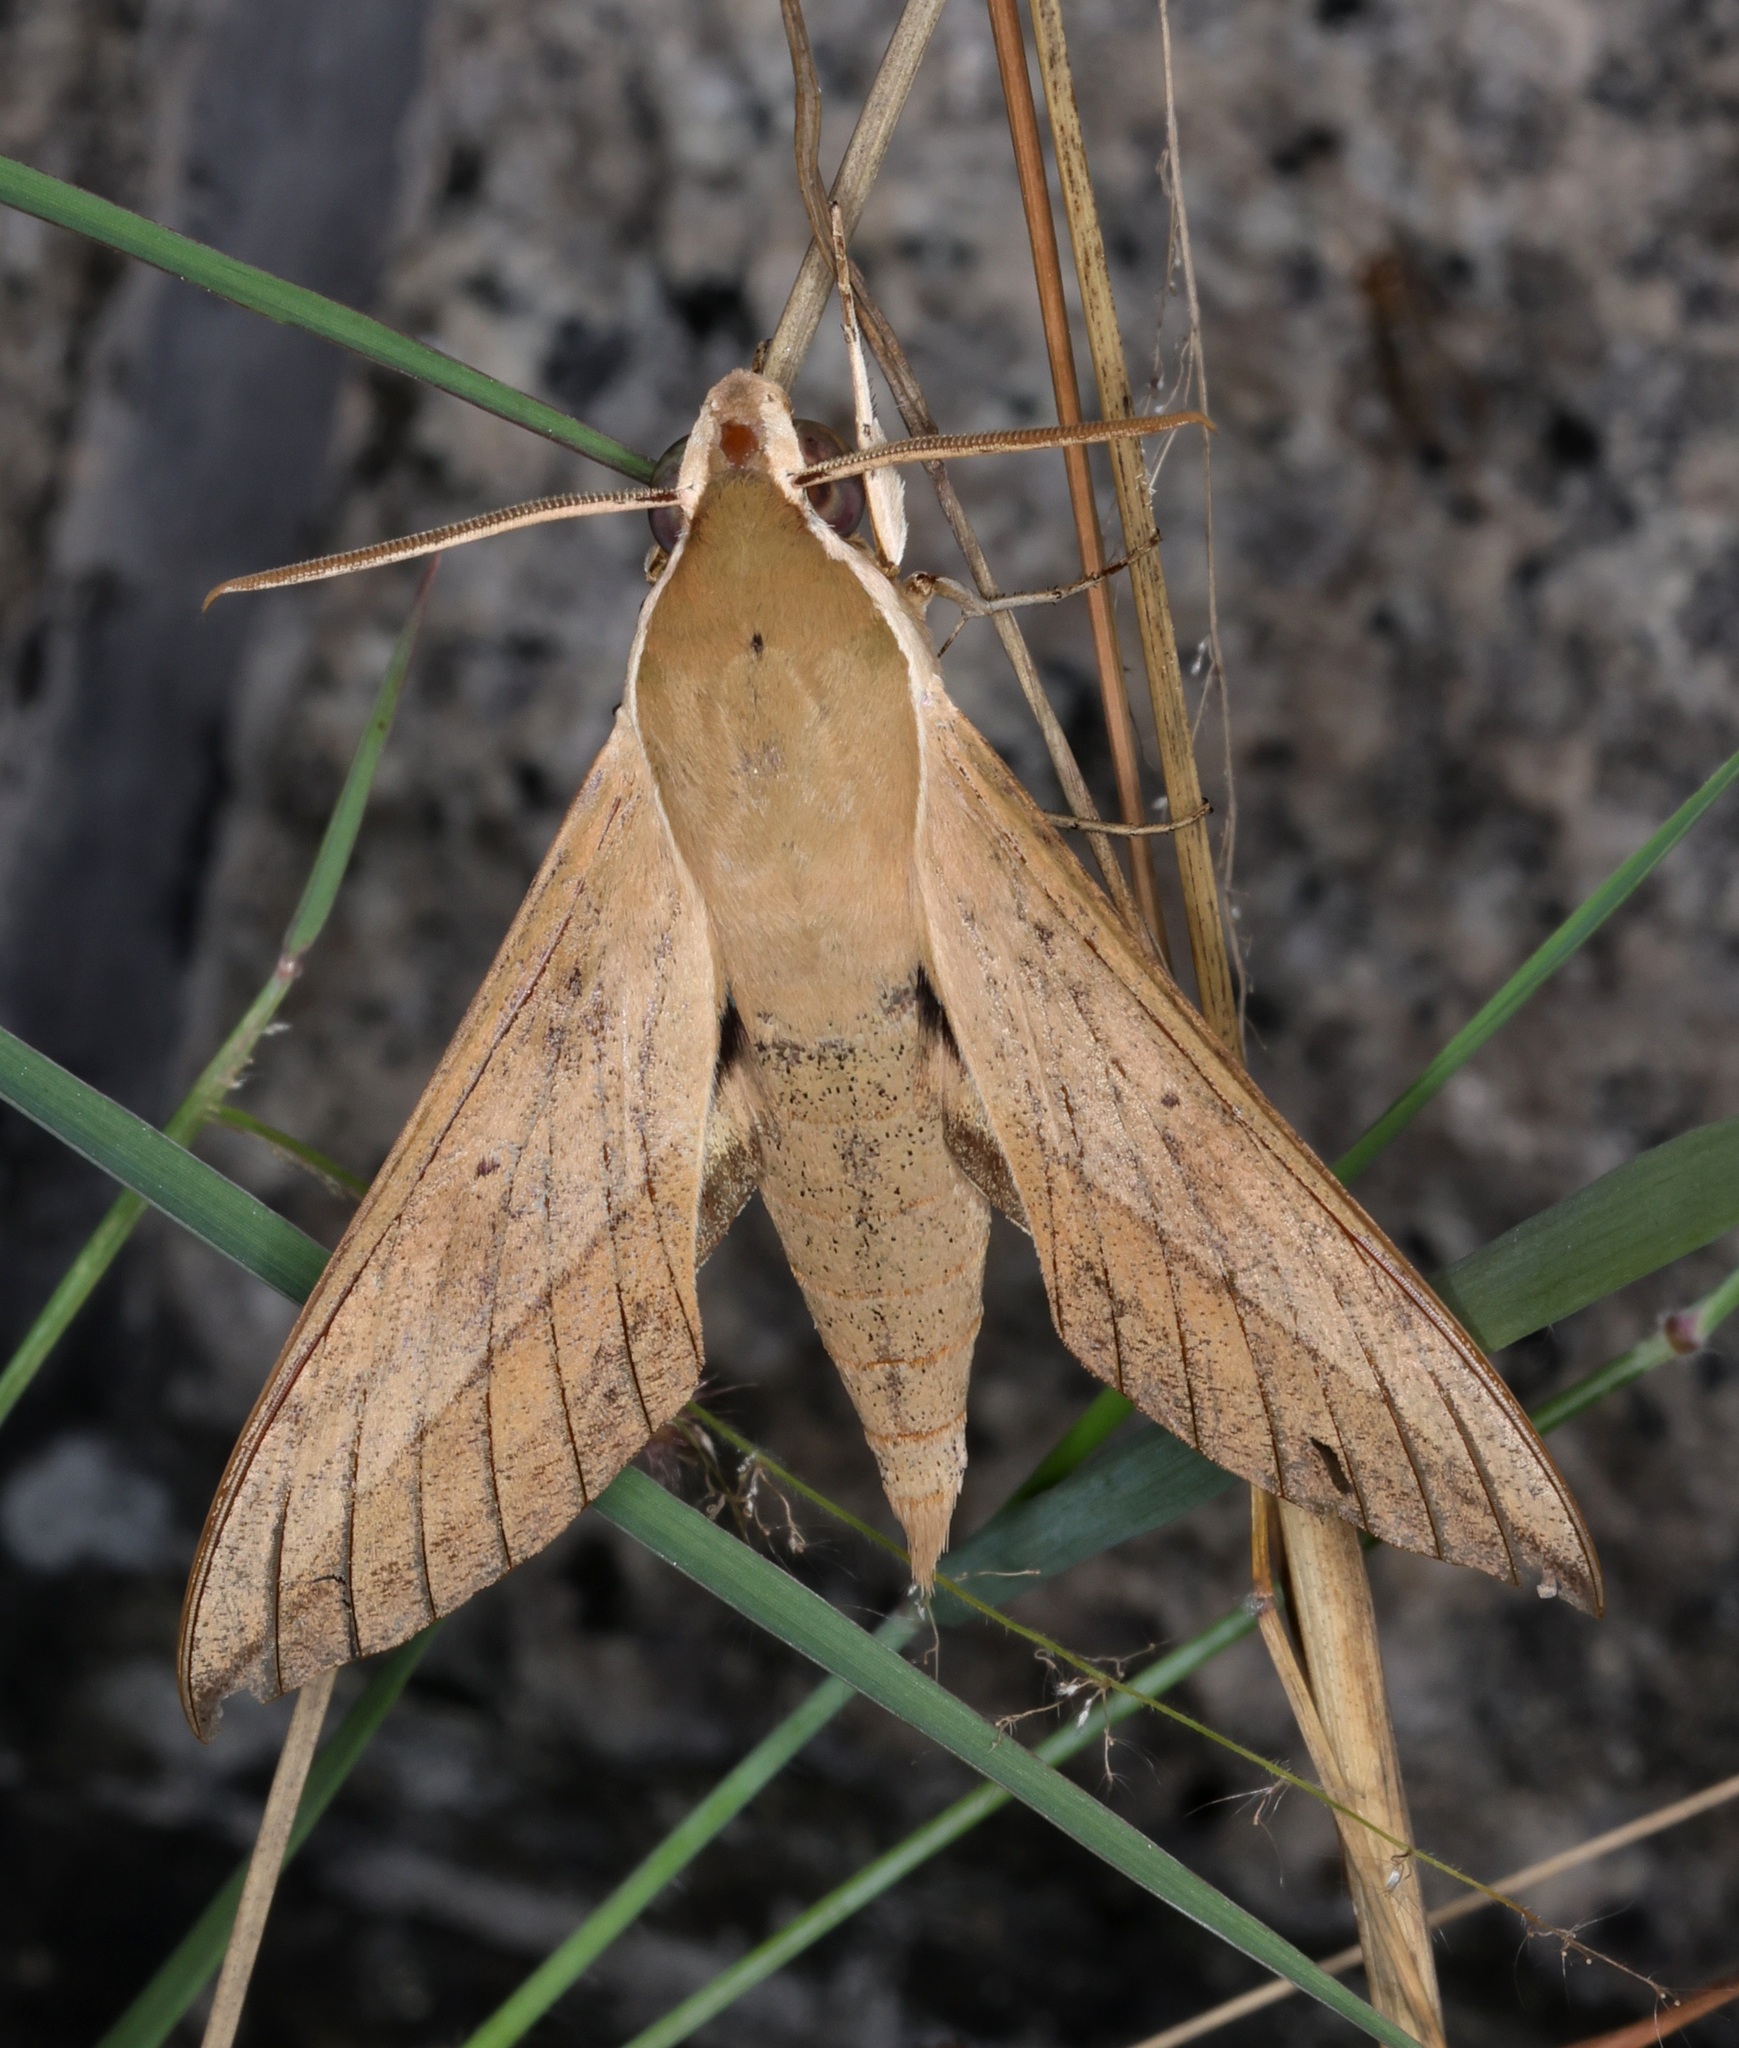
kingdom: Animalia
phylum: Arthropoda
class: Insecta
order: Lepidoptera
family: Sphingidae
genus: Theretra
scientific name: Theretra clotho
